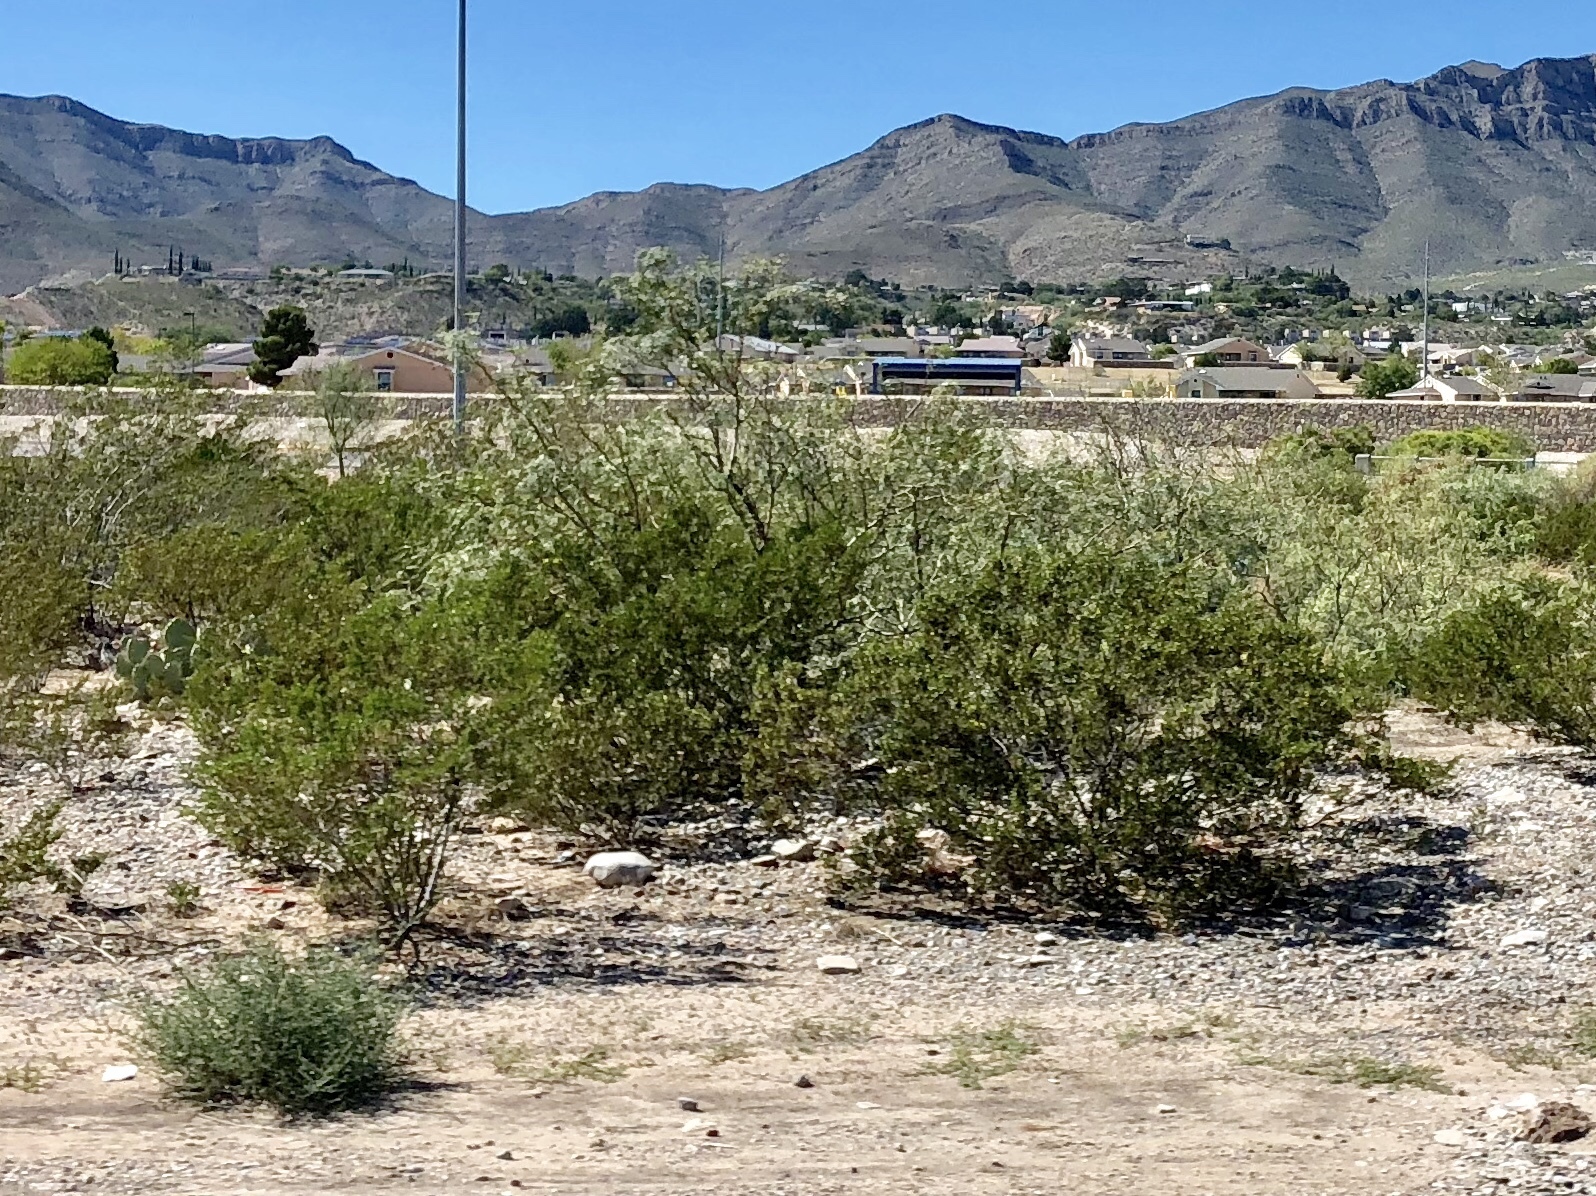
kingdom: Plantae
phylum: Tracheophyta
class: Magnoliopsida
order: Zygophyllales
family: Zygophyllaceae
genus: Larrea
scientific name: Larrea tridentata
